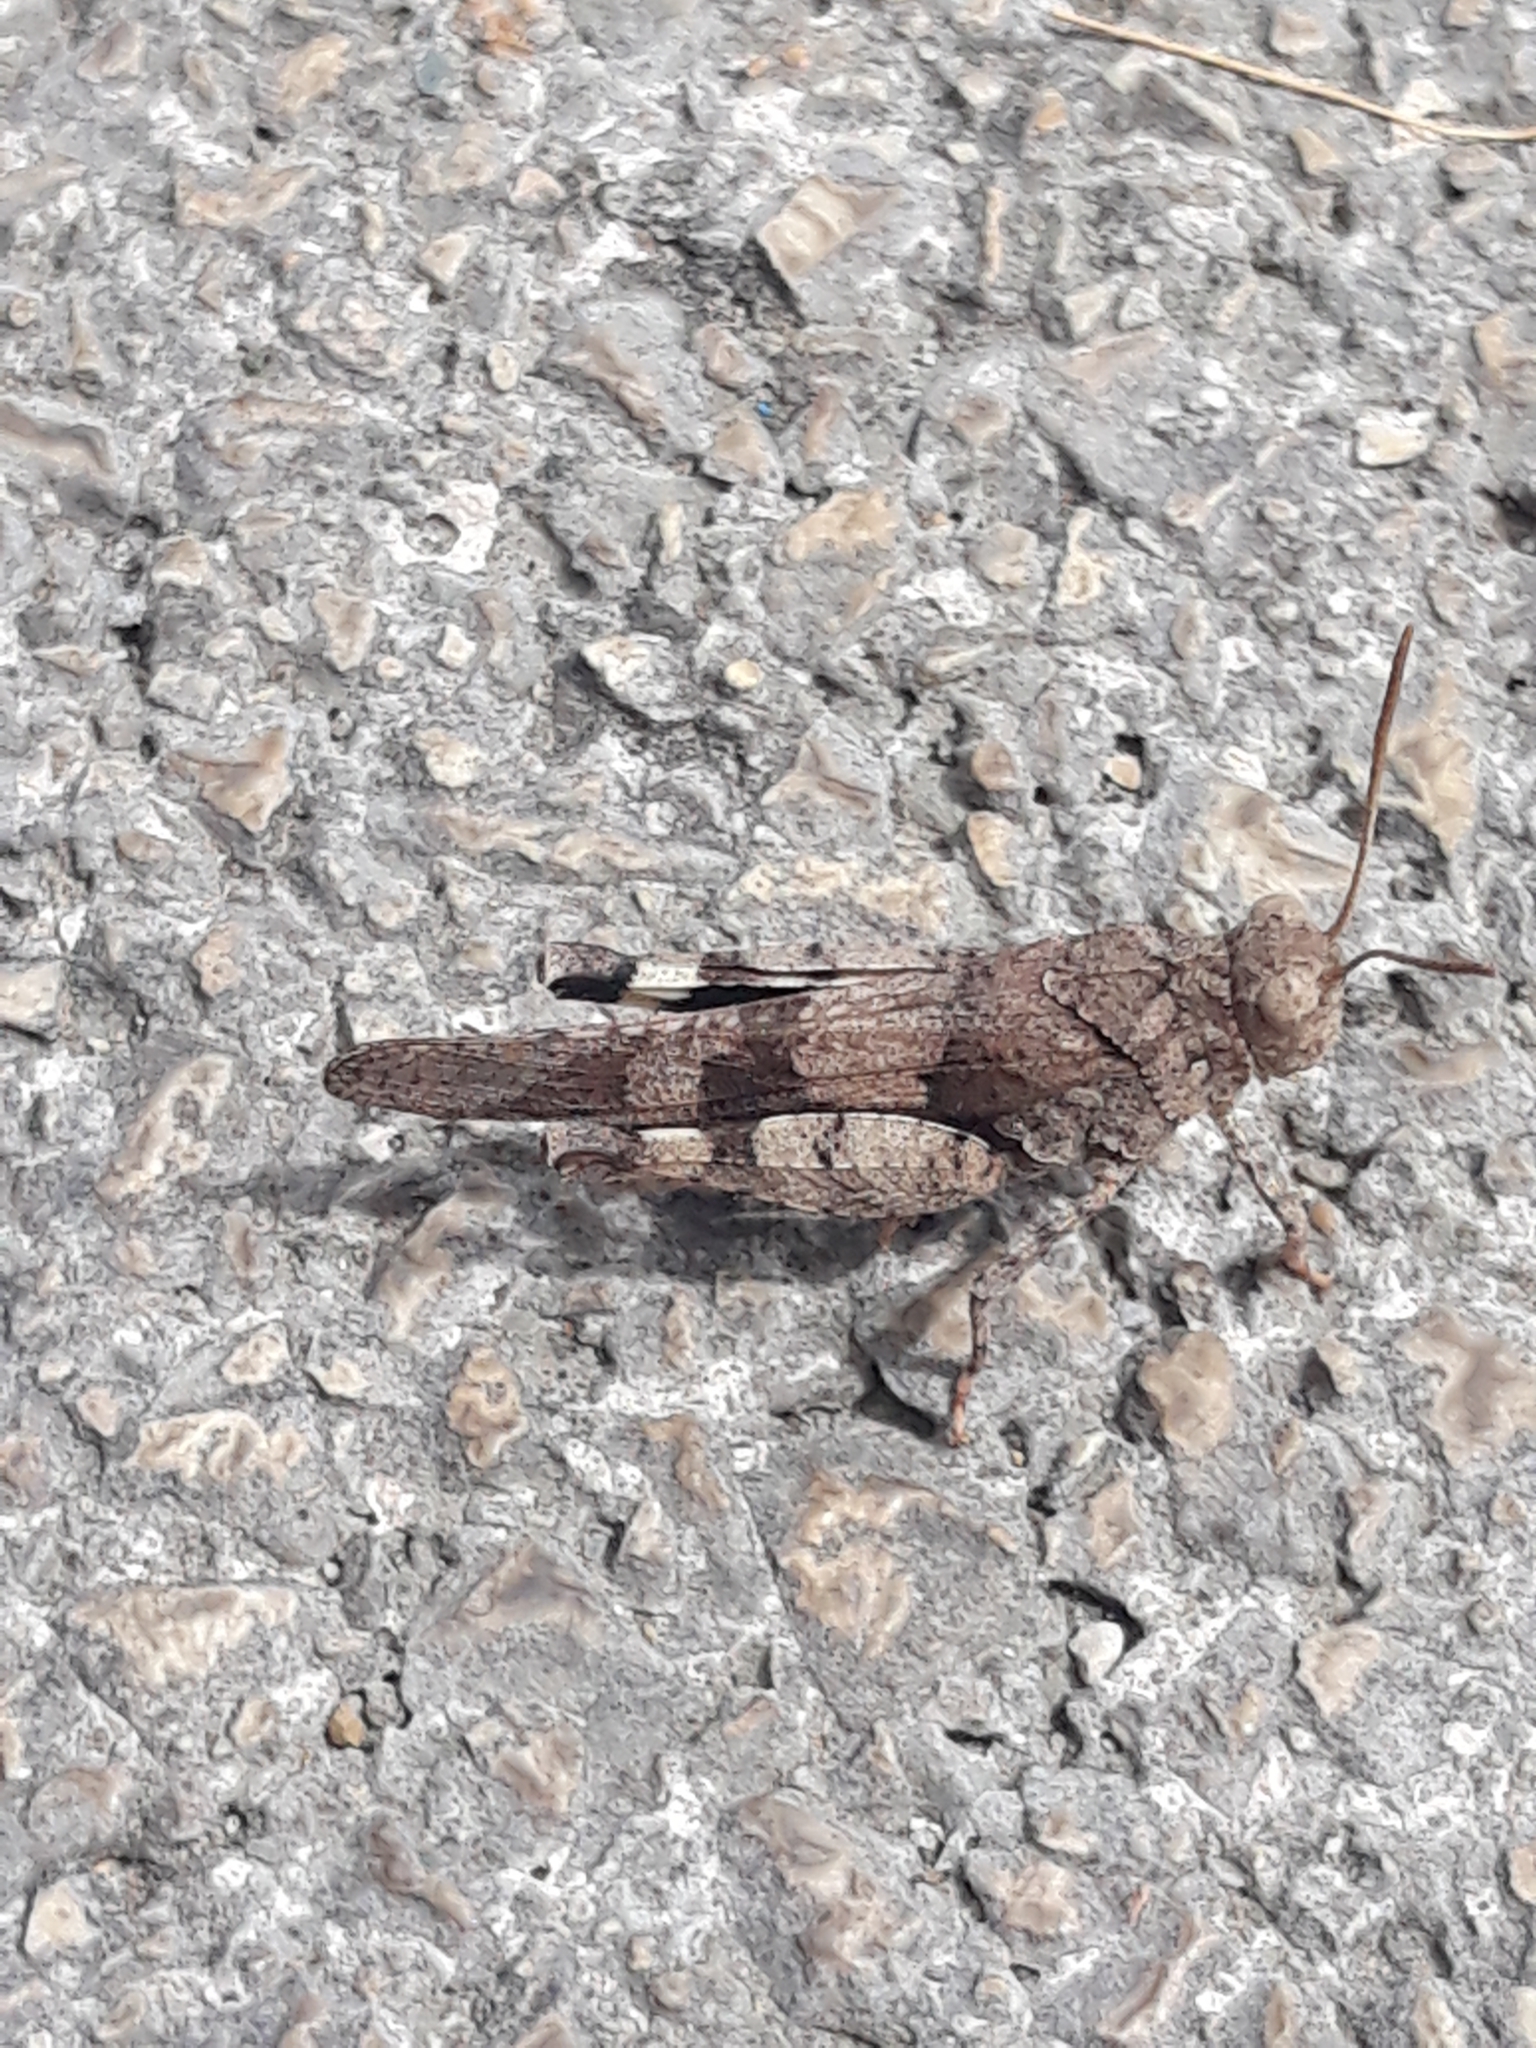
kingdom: Animalia
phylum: Arthropoda
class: Insecta
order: Orthoptera
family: Acrididae
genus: Oedipoda
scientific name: Oedipoda caerulescens
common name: Blue-winged grasshopper
